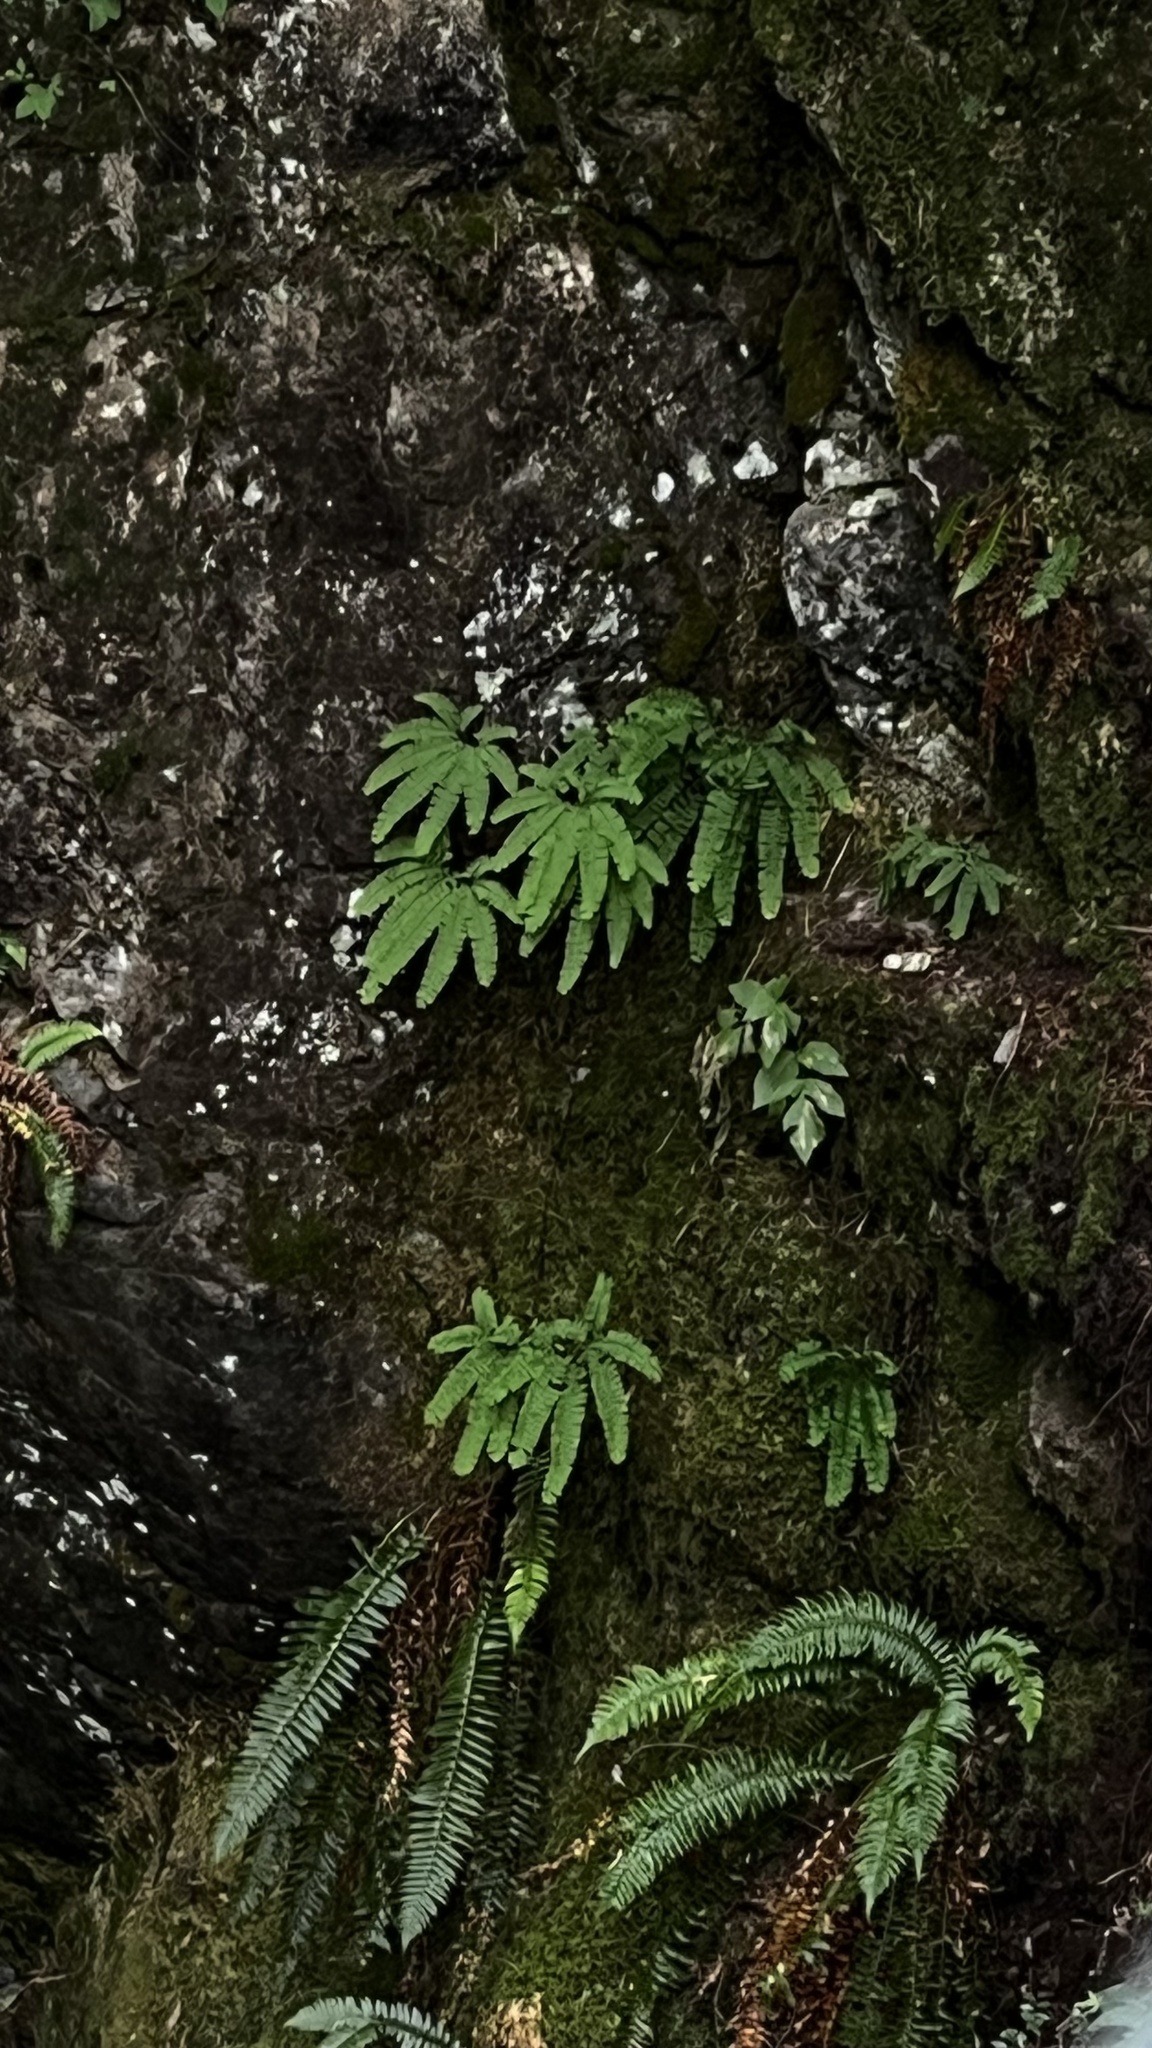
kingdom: Plantae
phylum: Tracheophyta
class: Polypodiopsida
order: Polypodiales
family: Pteridaceae
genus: Adiantum
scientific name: Adiantum aleuticum
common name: Aleutian maidenhair fern
